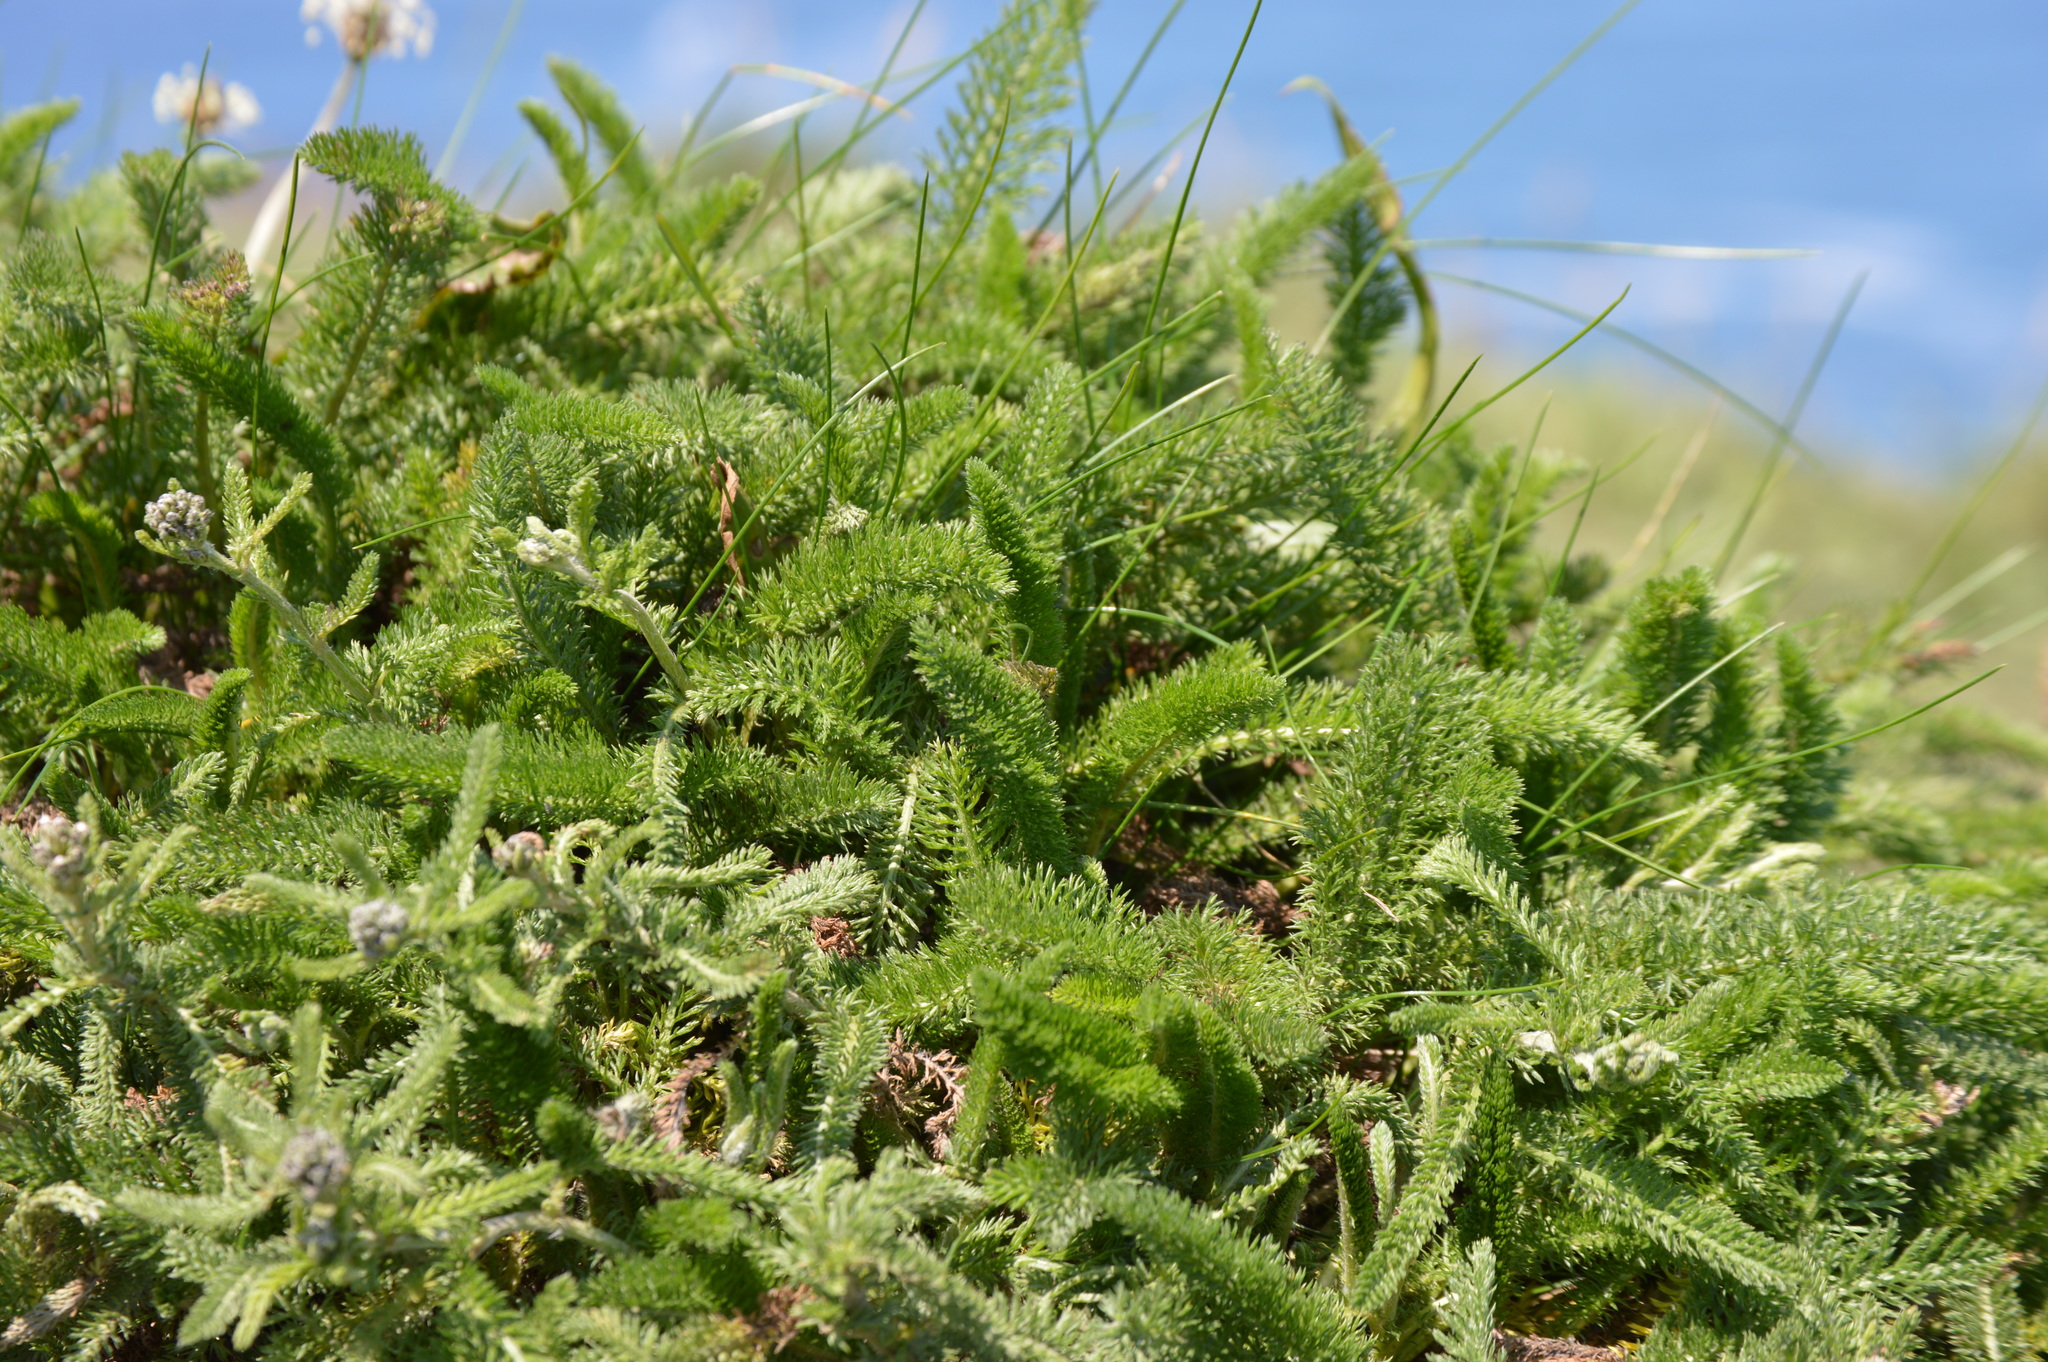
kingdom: Plantae
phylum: Tracheophyta
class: Magnoliopsida
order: Asterales
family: Asteraceae
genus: Achillea
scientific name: Achillea millefolium
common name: Yarrow
